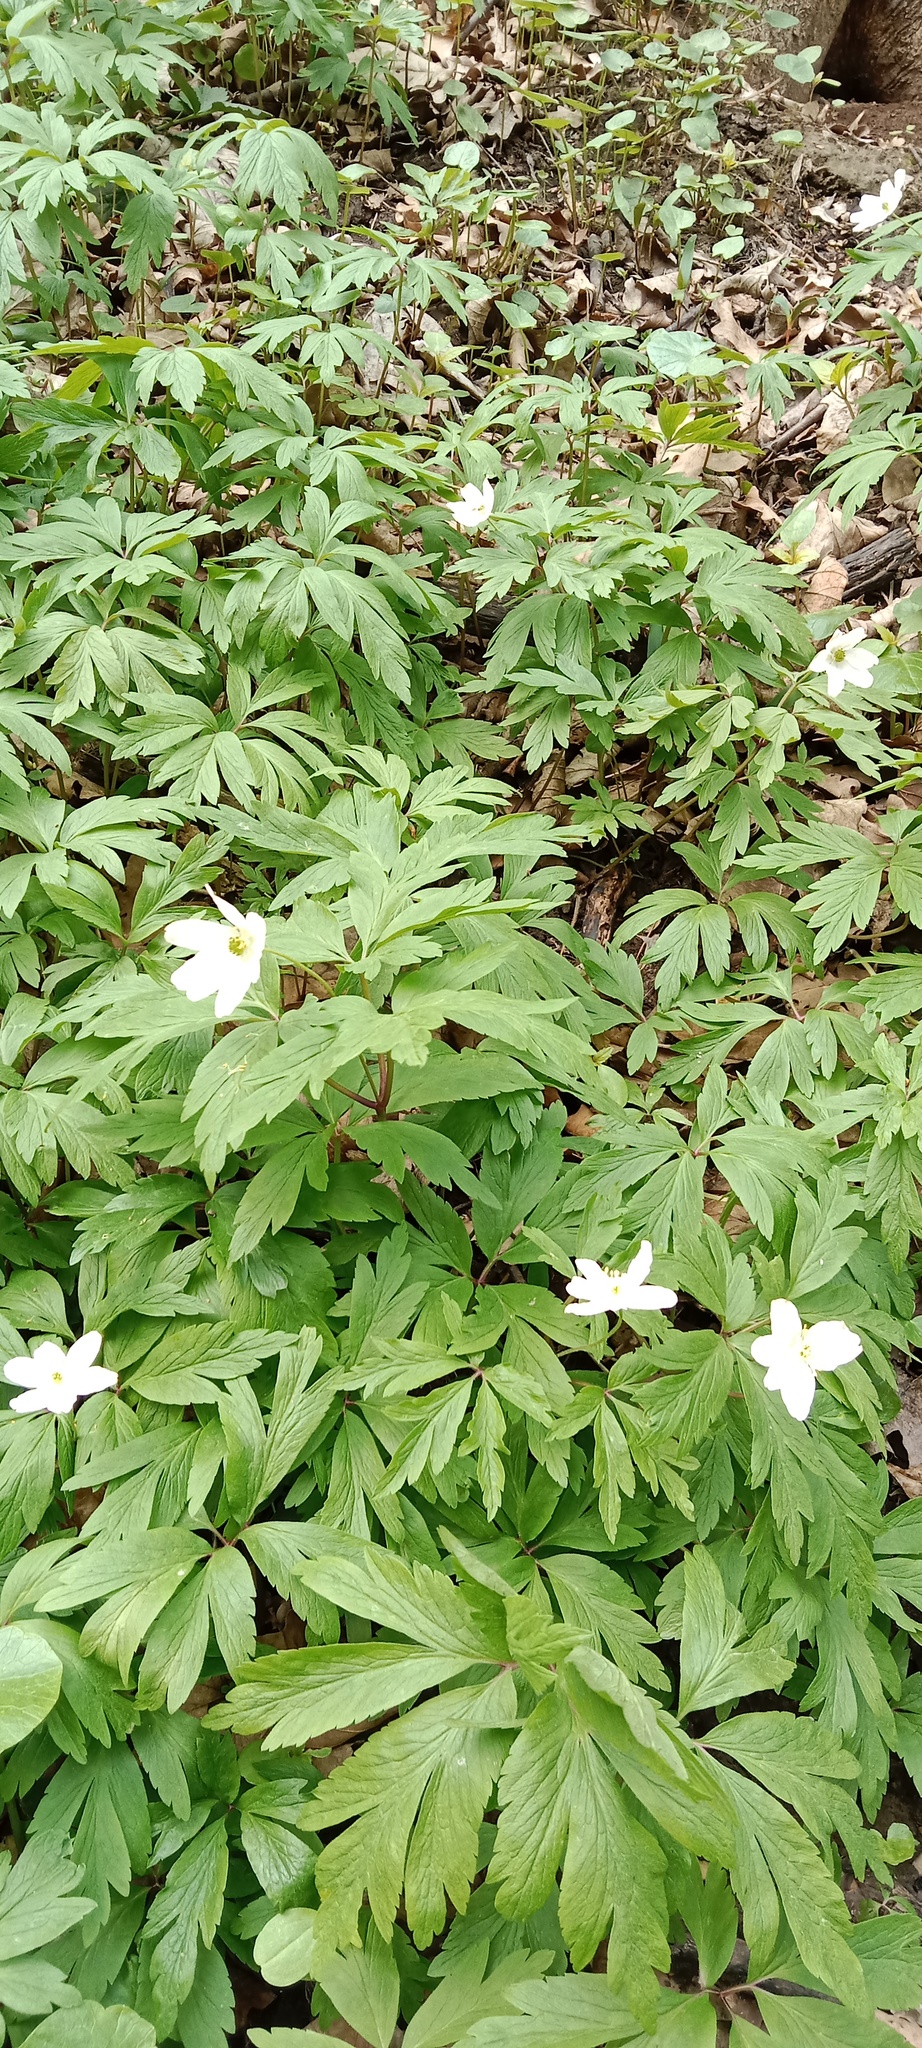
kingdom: Plantae
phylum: Tracheophyta
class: Magnoliopsida
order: Ranunculales
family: Ranunculaceae
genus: Anemone
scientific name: Anemone nemorosa
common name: Wood anemone
